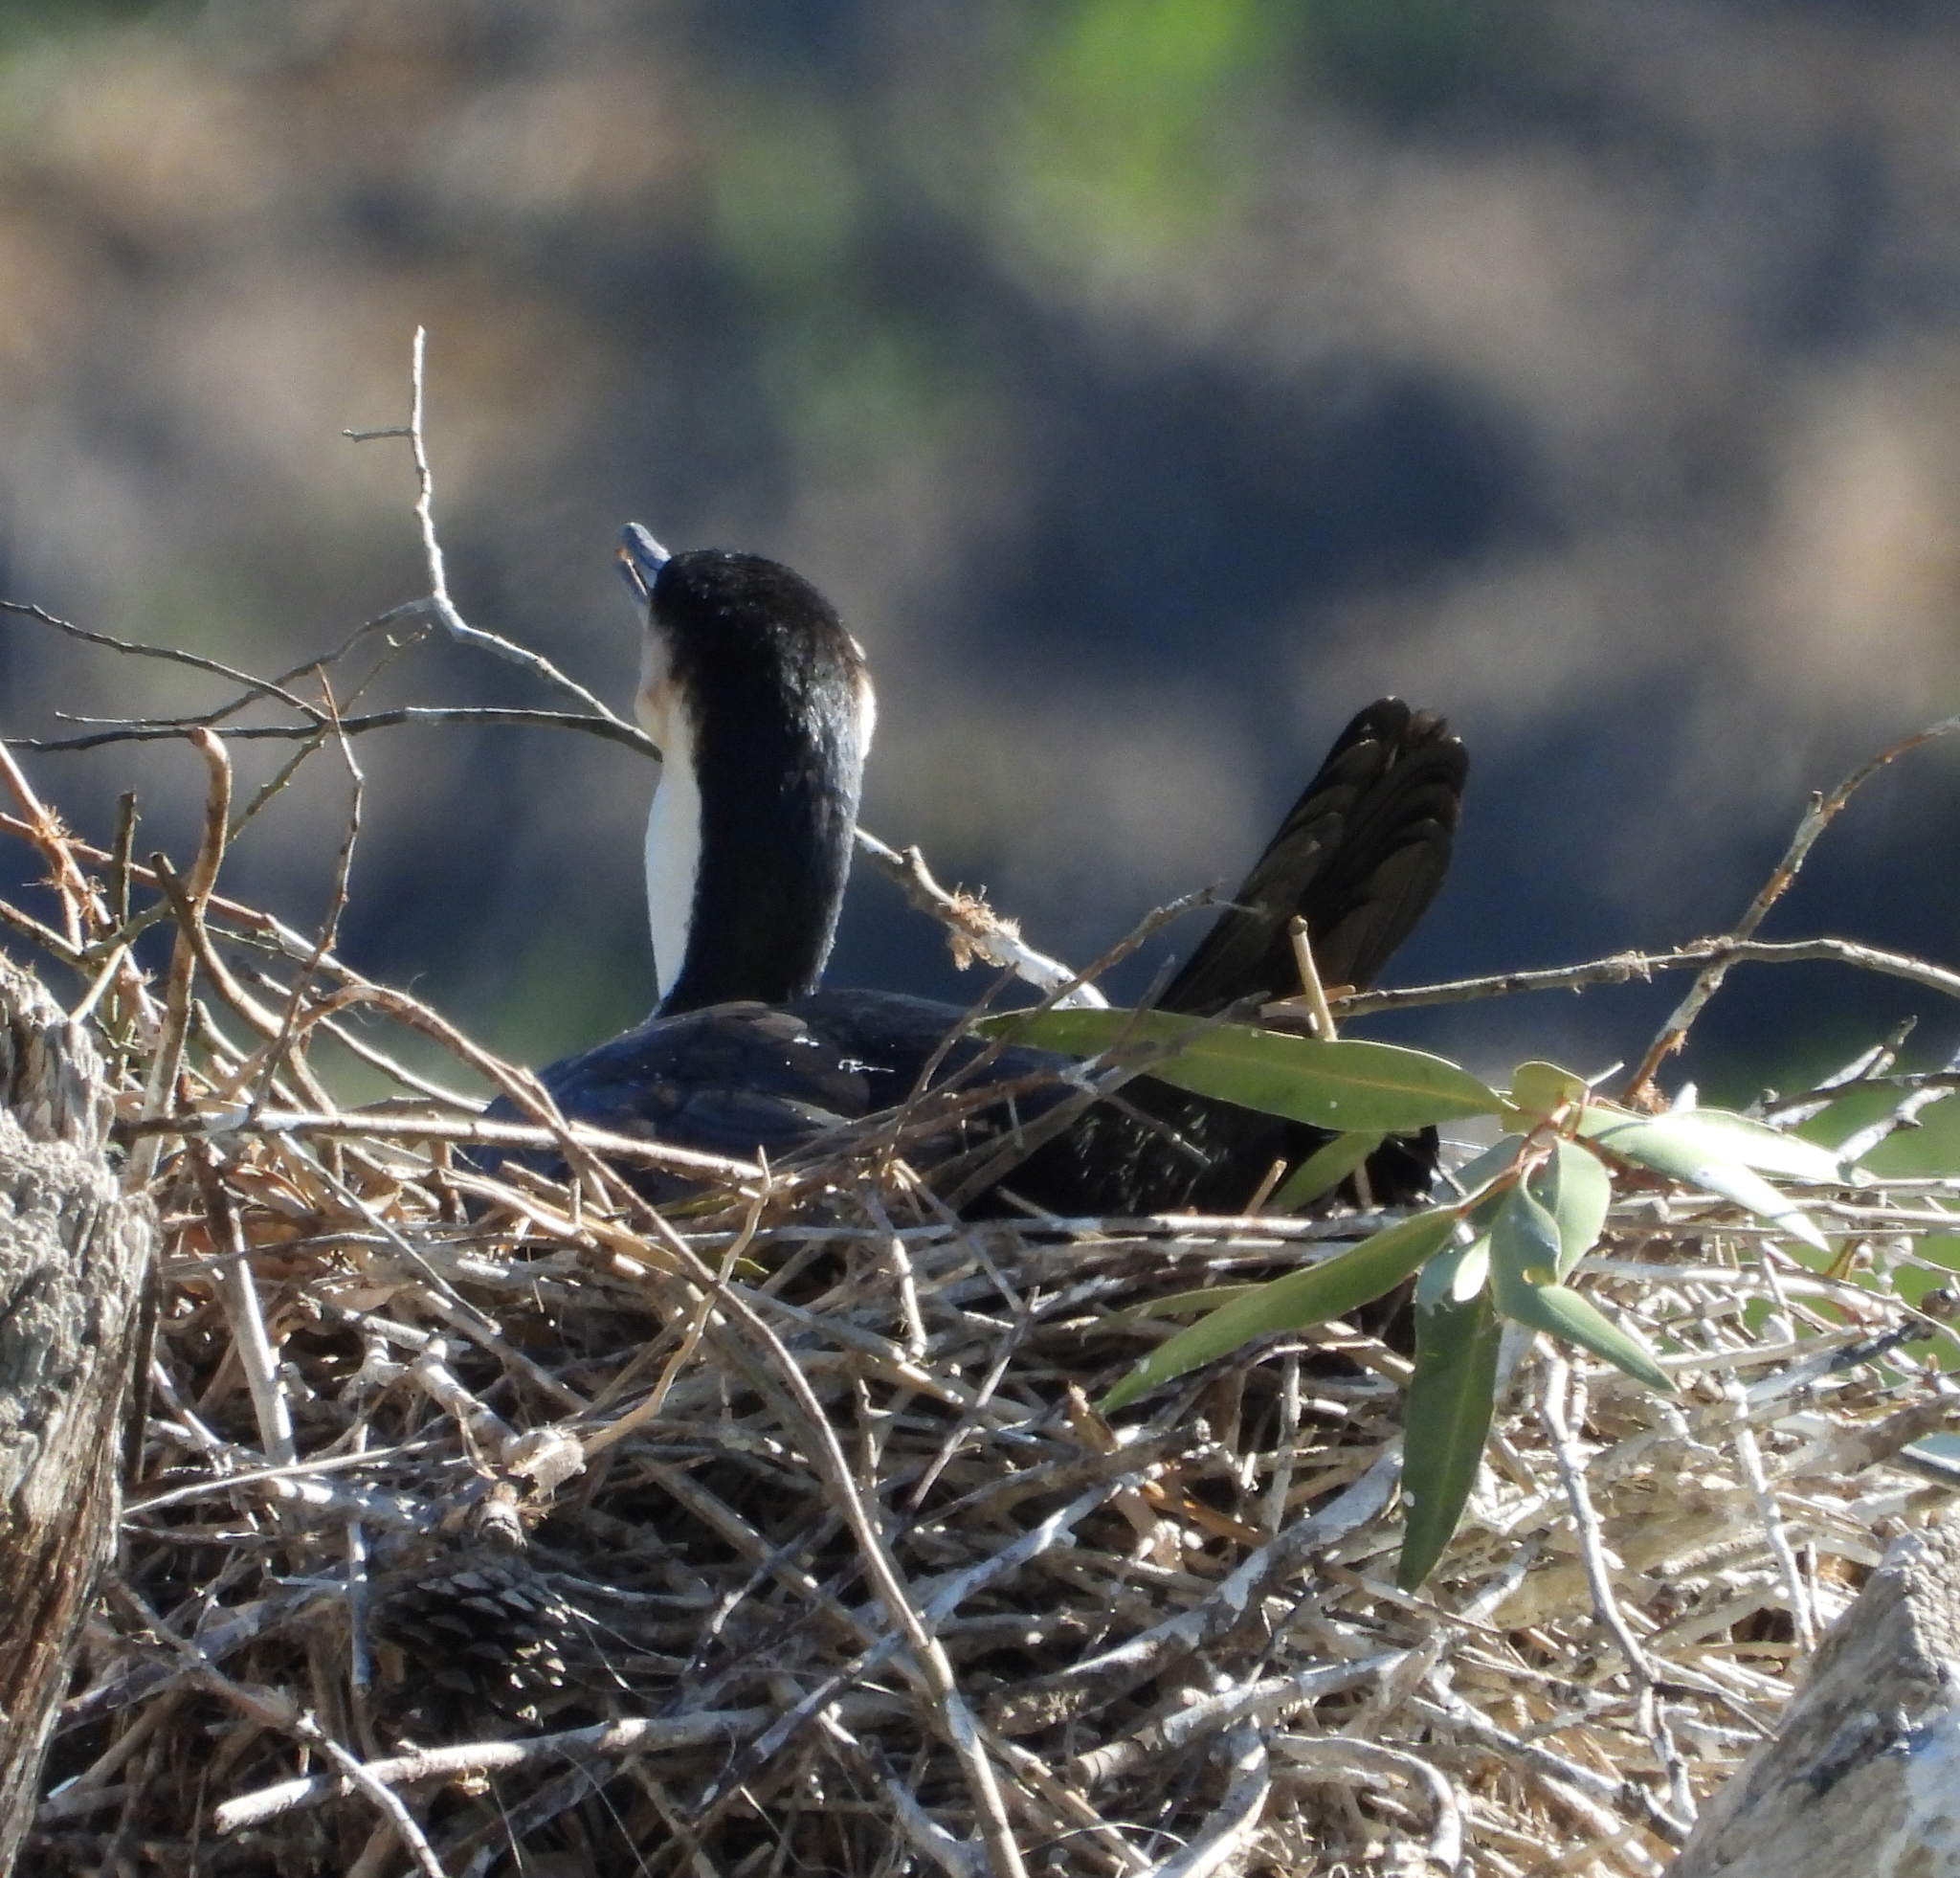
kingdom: Animalia
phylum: Chordata
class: Aves
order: Suliformes
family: Phalacrocoracidae
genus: Phalacrocorax
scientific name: Phalacrocorax carbo
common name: Great cormorant
